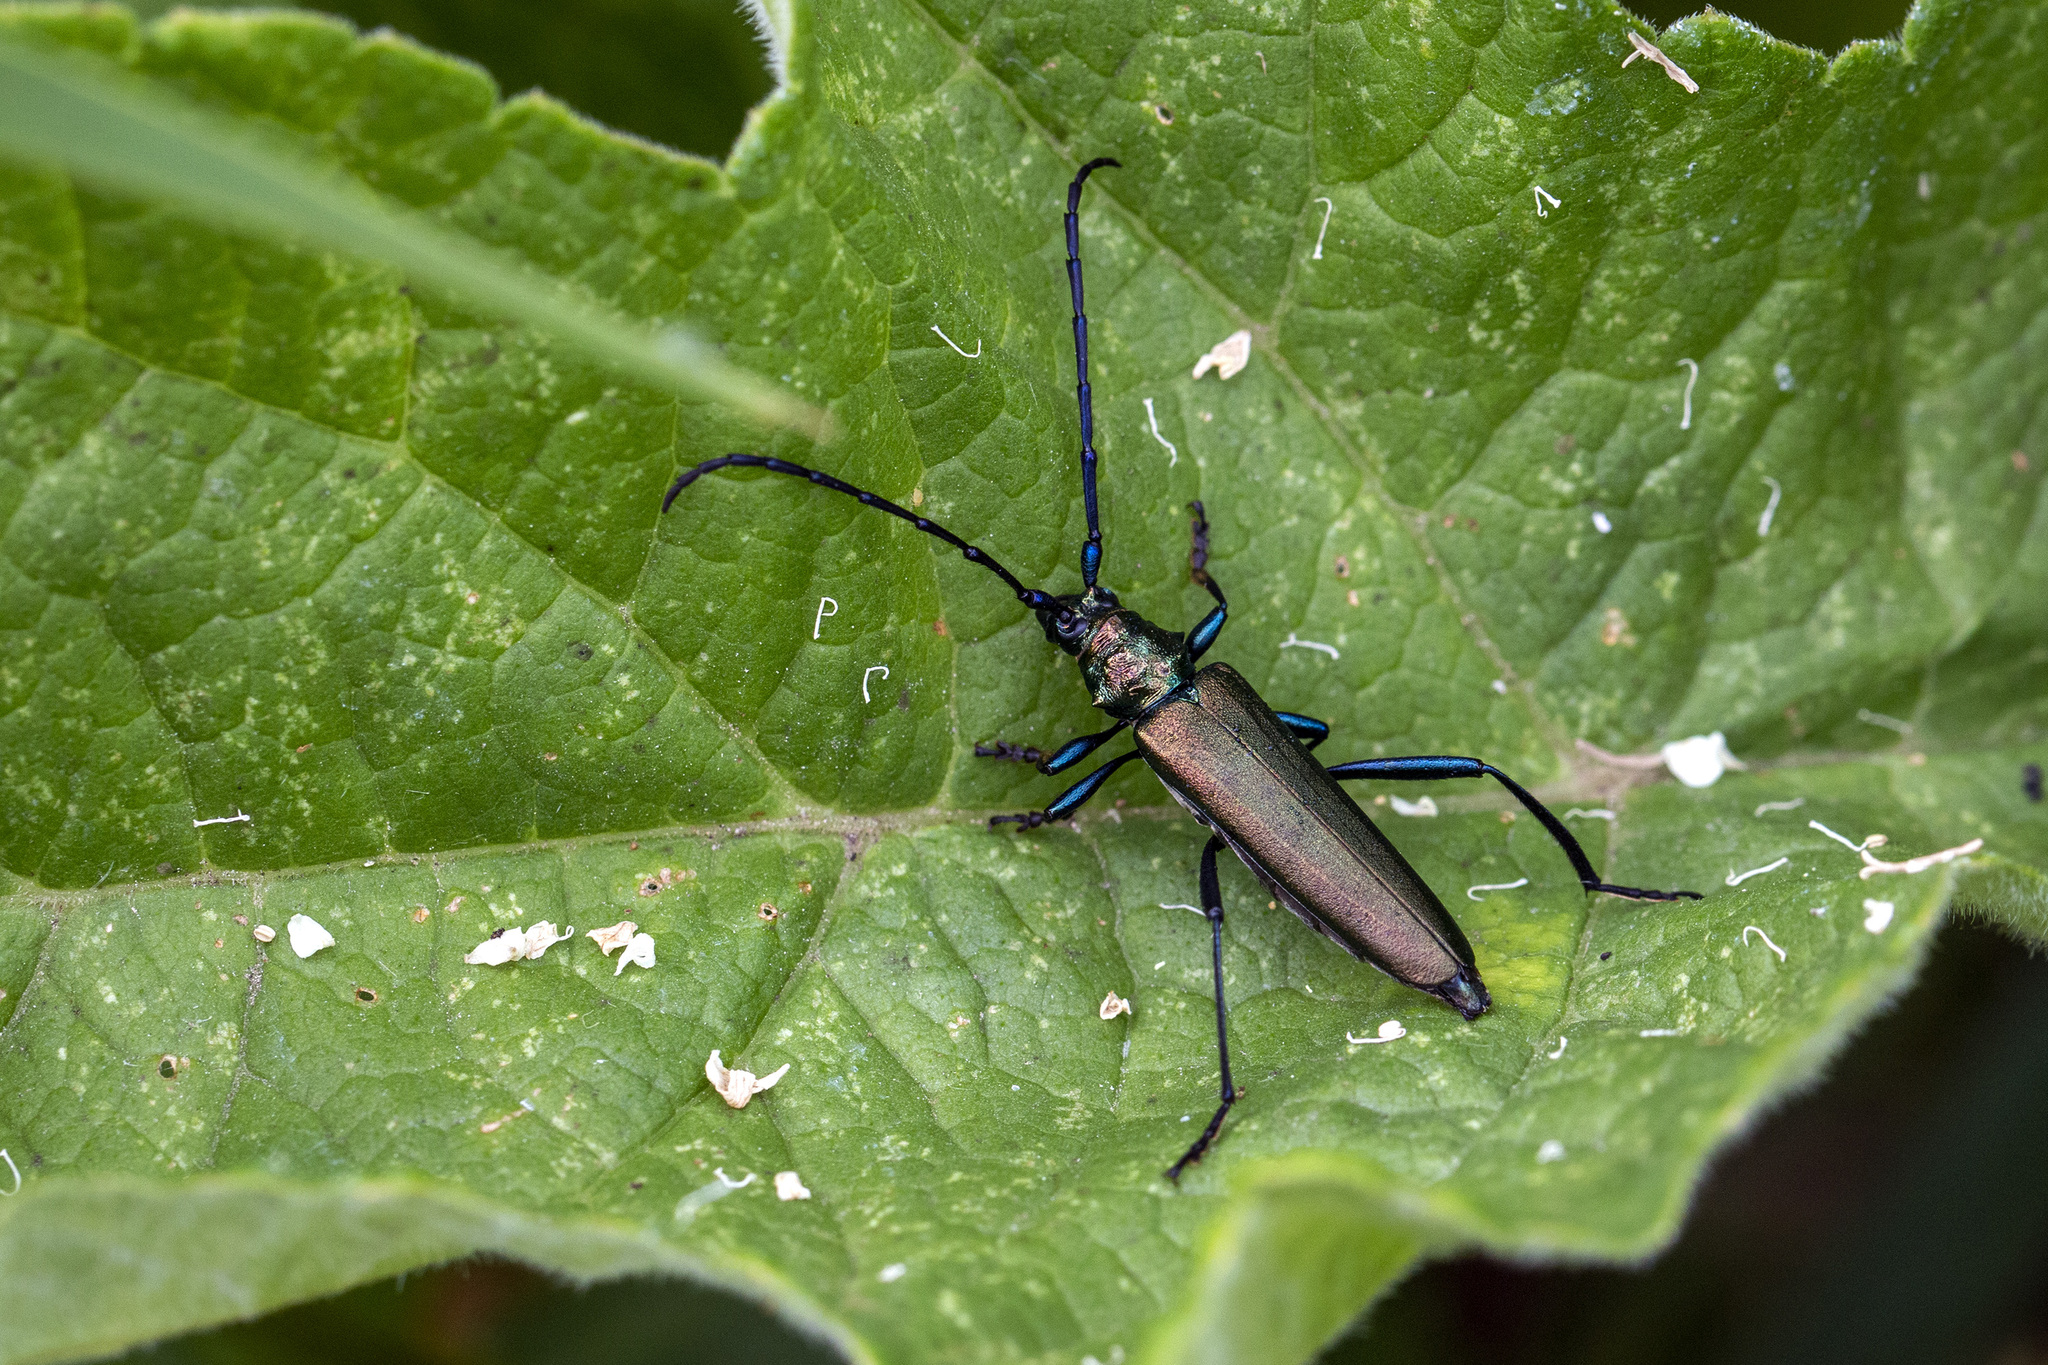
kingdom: Animalia
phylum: Arthropoda
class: Insecta
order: Coleoptera
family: Cerambycidae
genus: Aromia
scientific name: Aromia moschata
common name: Musk beetle
